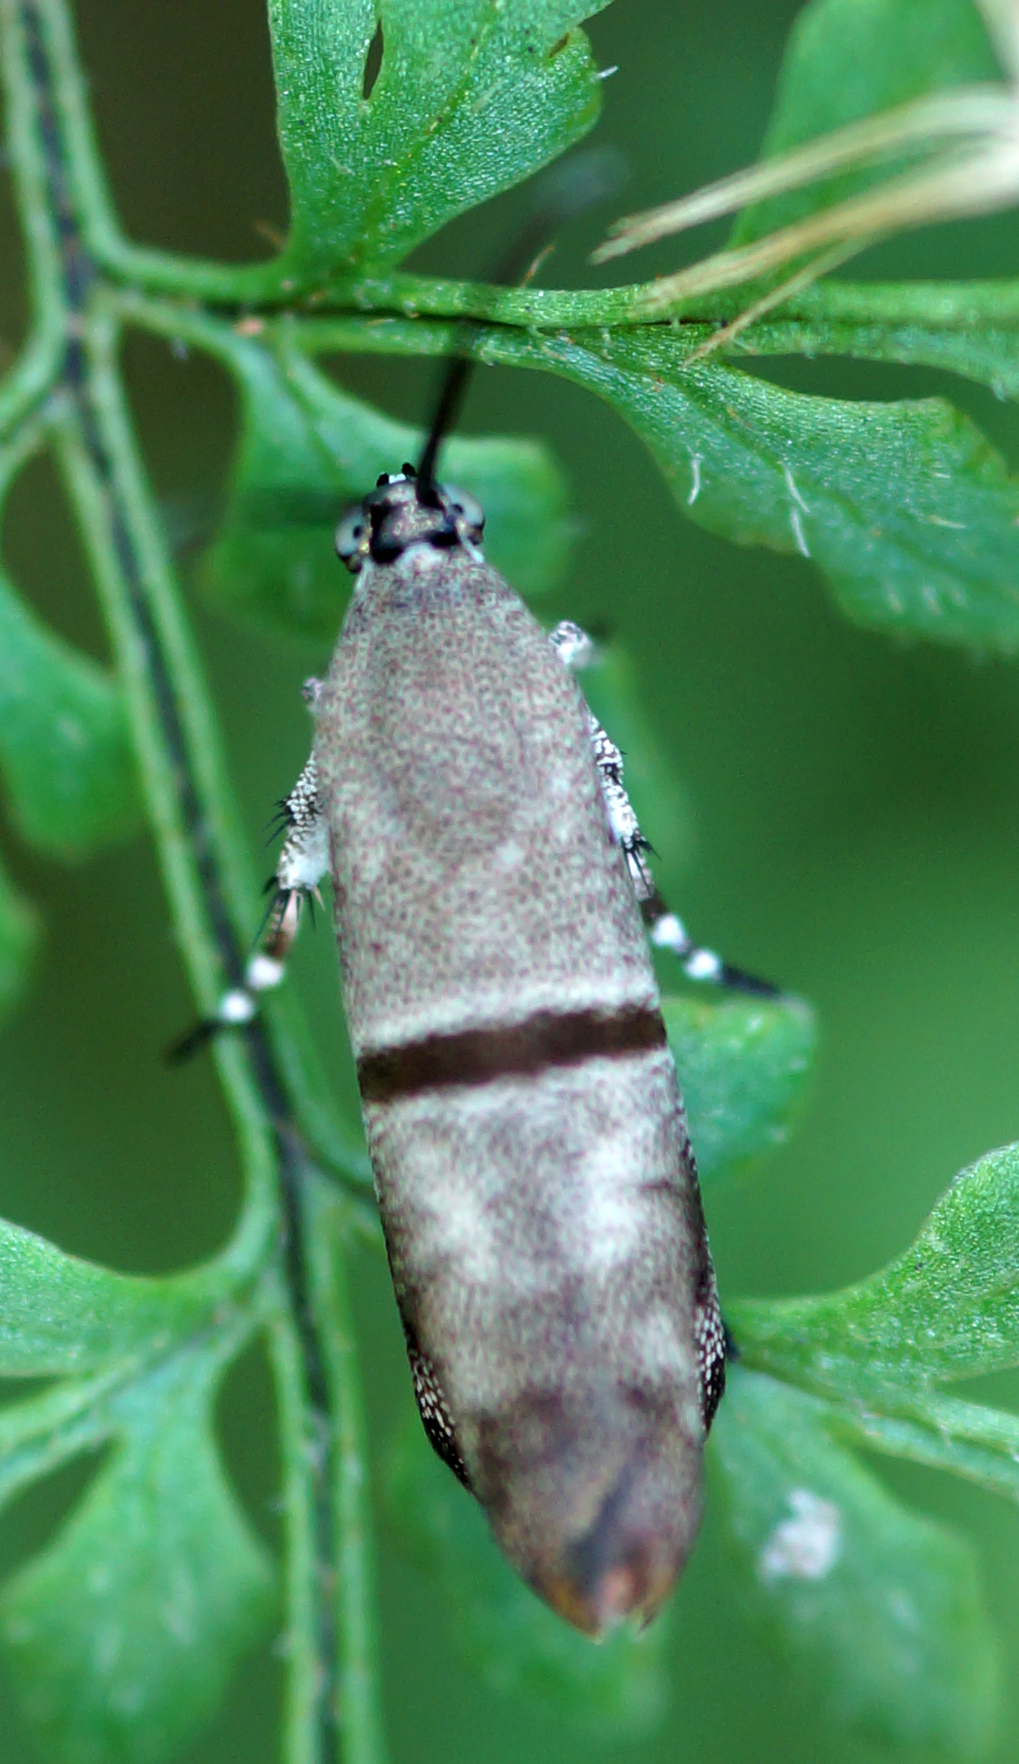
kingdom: Animalia
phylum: Arthropoda
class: Insecta
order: Lepidoptera
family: Brachodidae
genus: Phycodes
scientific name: Phycodes minor
